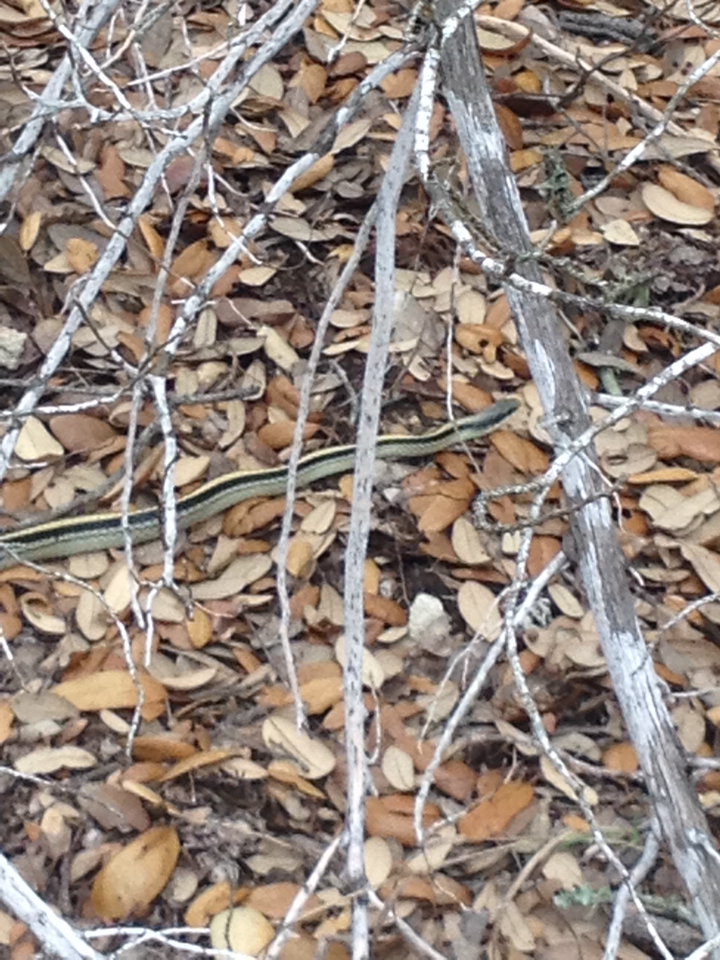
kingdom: Animalia
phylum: Chordata
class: Squamata
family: Colubridae
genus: Salvadora
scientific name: Salvadora lineata
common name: Texas patchnose snake
